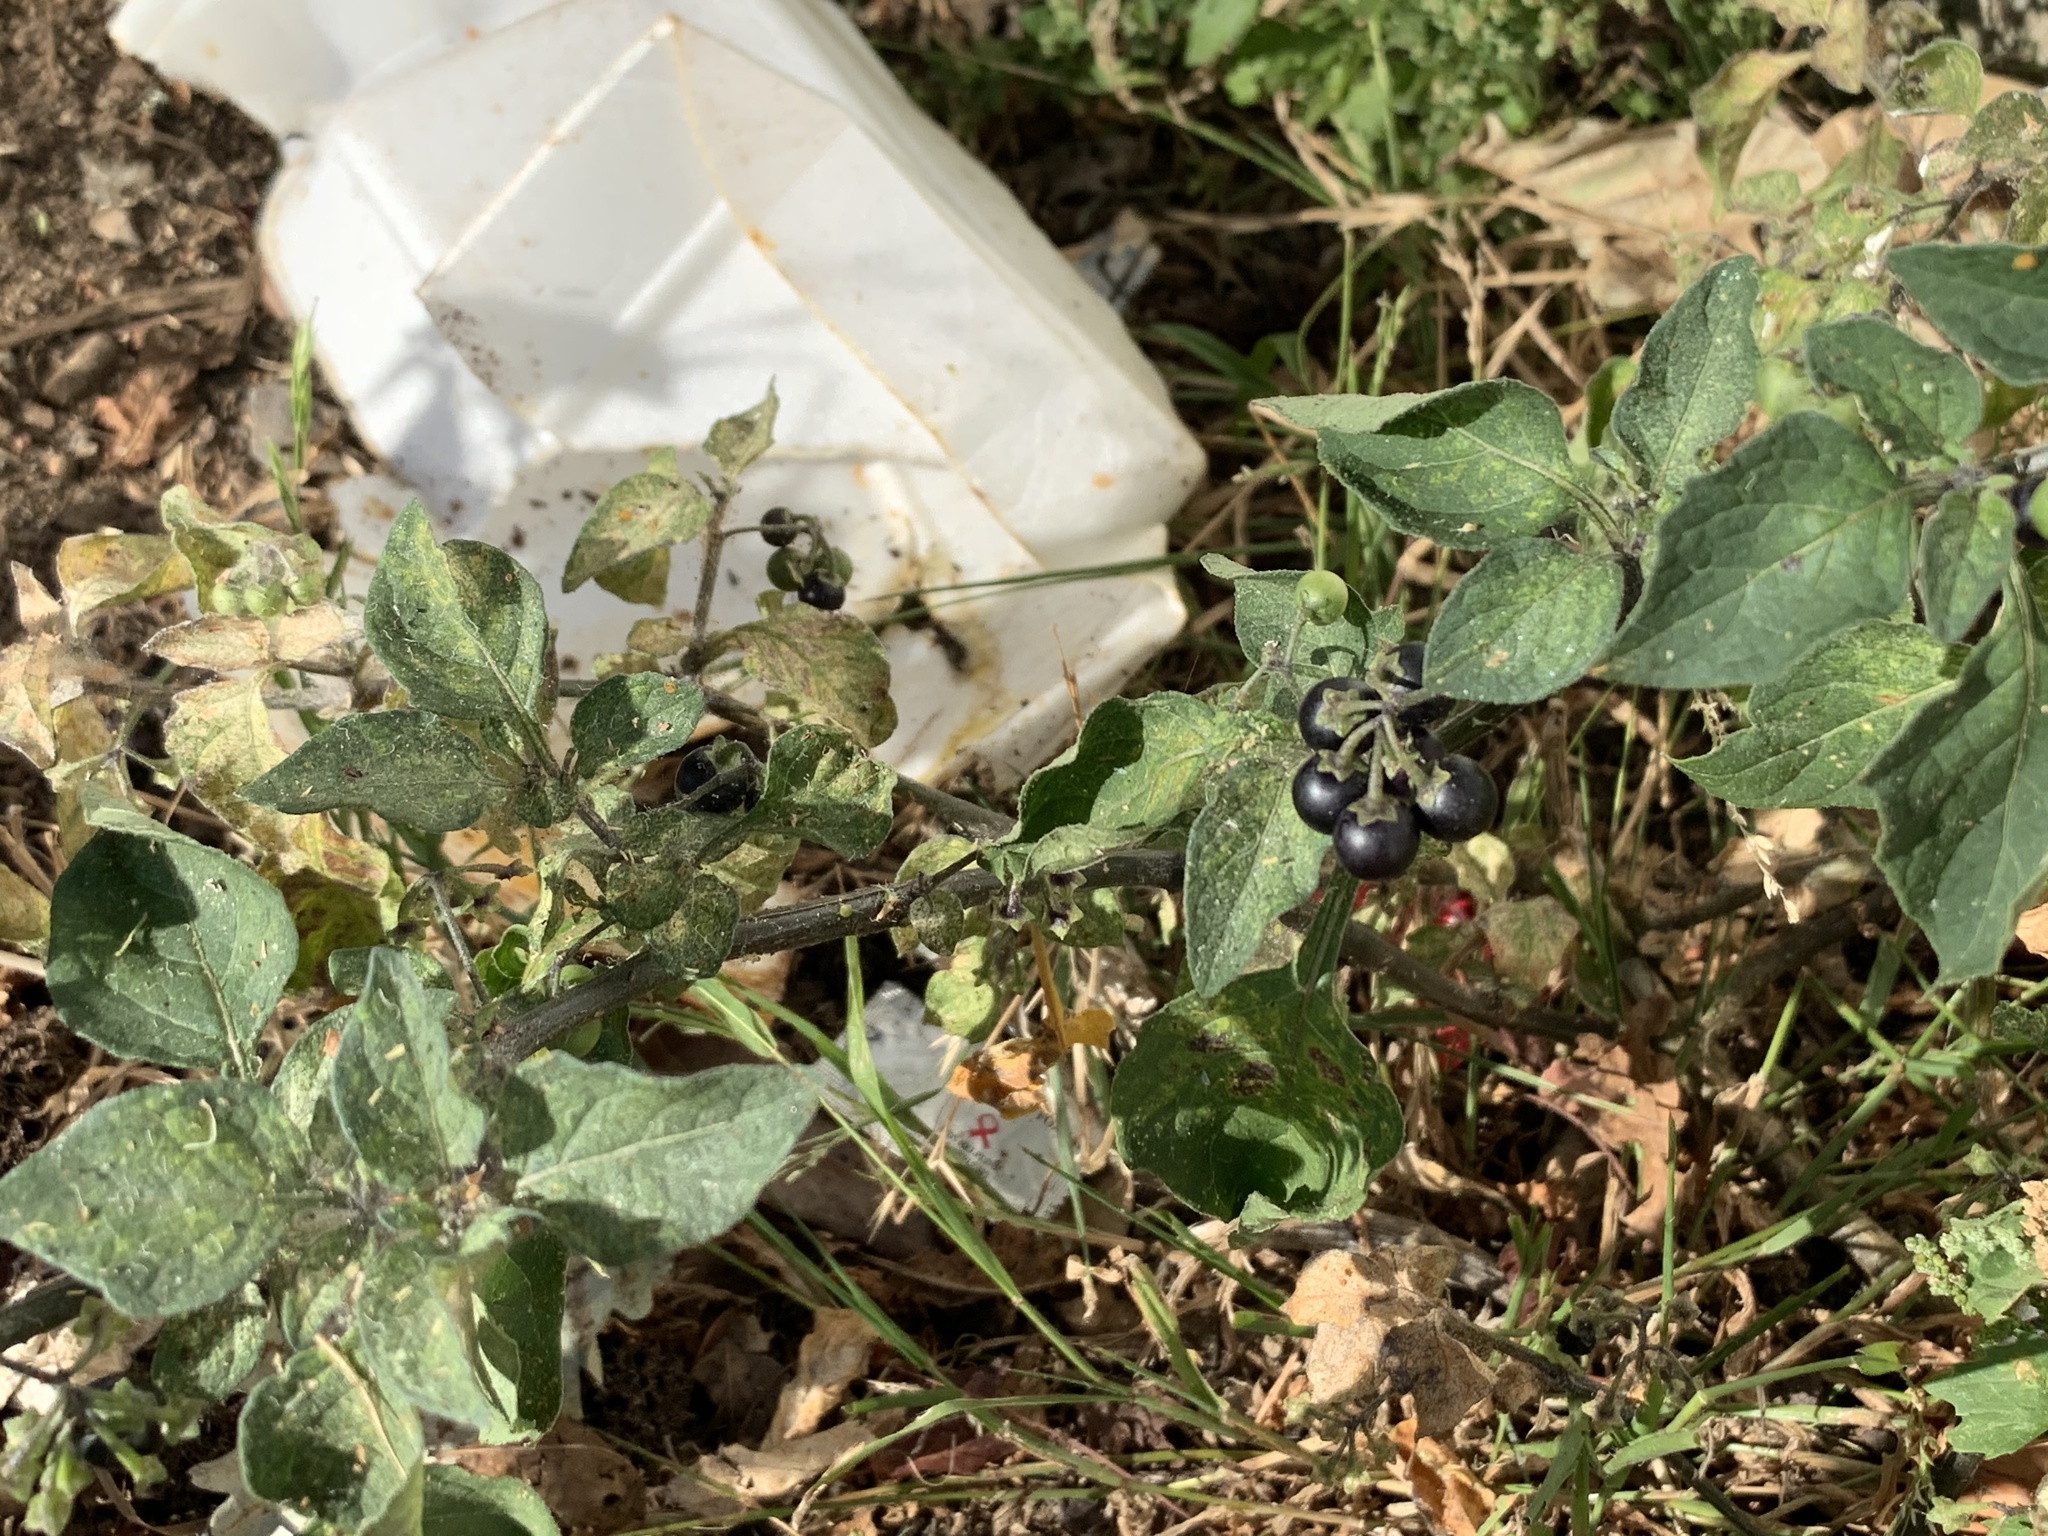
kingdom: Plantae
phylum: Tracheophyta
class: Magnoliopsida
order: Solanales
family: Solanaceae
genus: Solanum
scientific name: Solanum nigrum
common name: Black nightshade
